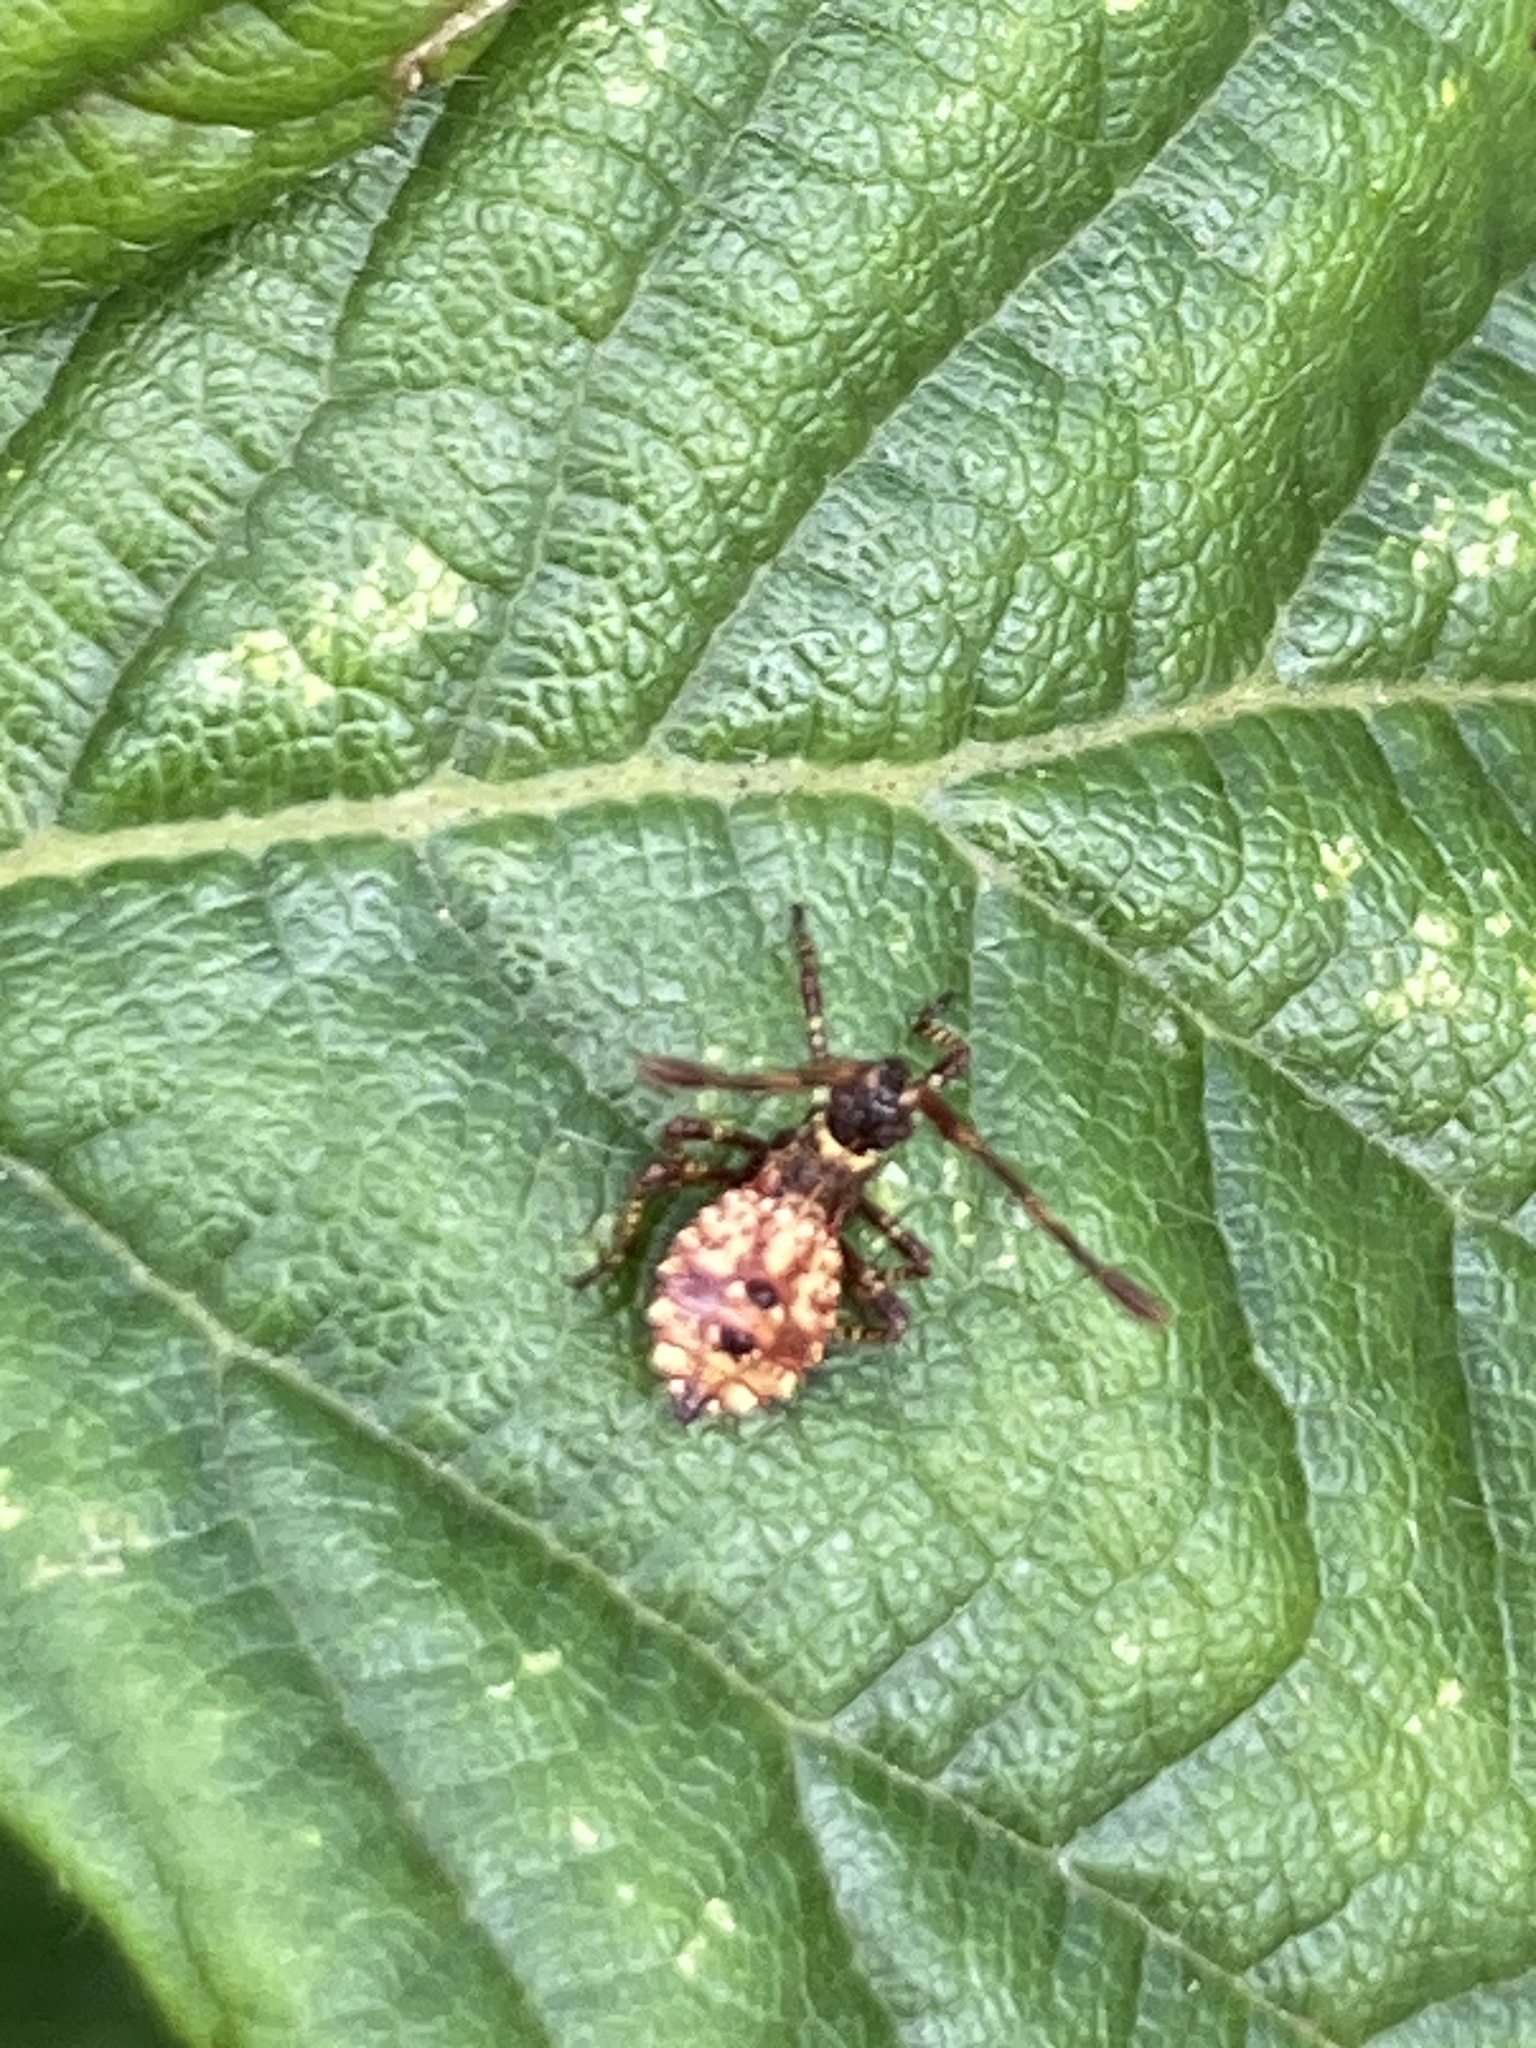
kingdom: Animalia
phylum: Arthropoda
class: Insecta
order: Hemiptera
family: Coreidae
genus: Coreus
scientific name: Coreus marginatus
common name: Dock bug
